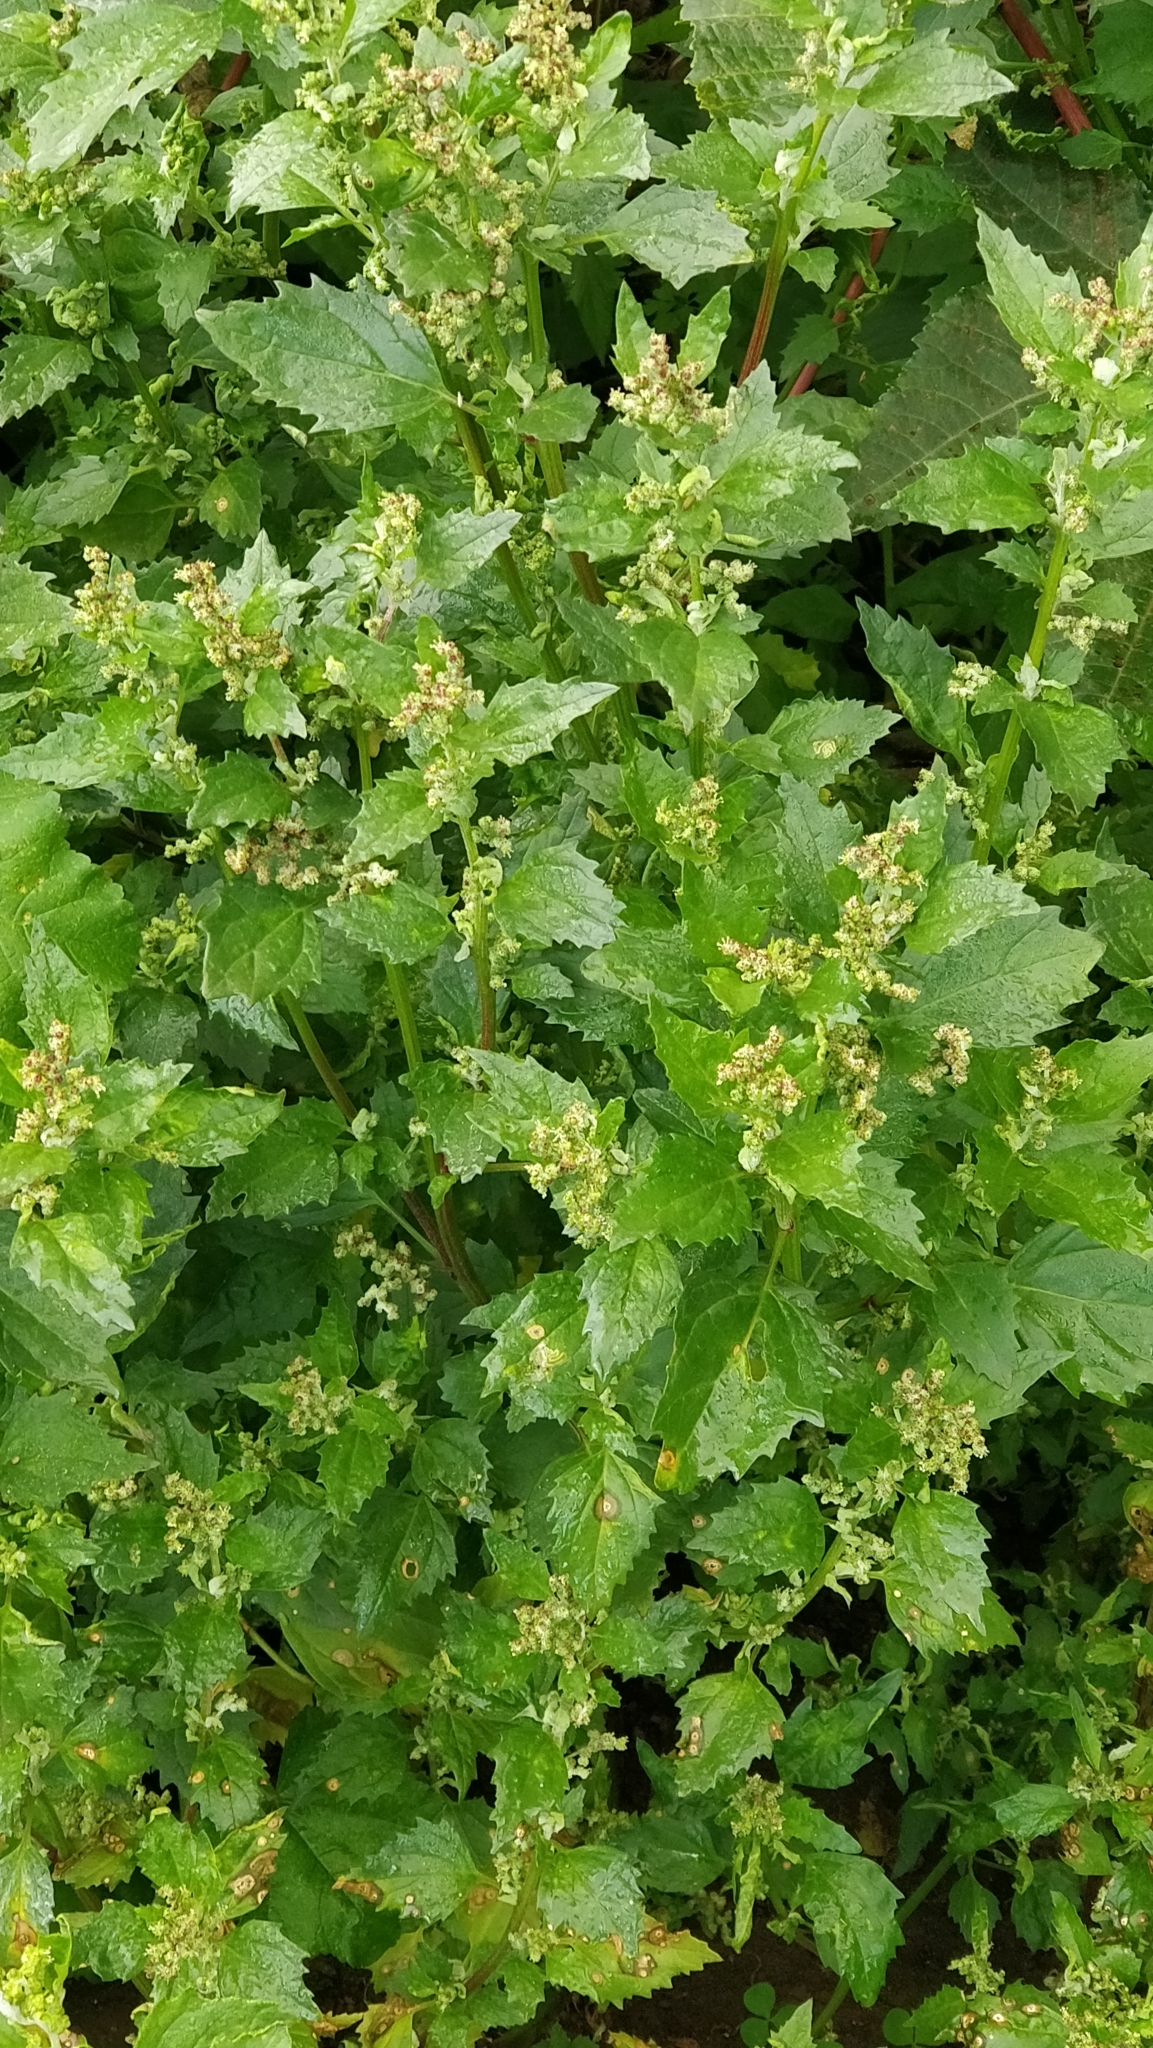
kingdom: Plantae
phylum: Tracheophyta
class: Magnoliopsida
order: Caryophyllales
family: Amaranthaceae
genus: Chenopodiastrum
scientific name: Chenopodiastrum murale
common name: Sowbane
